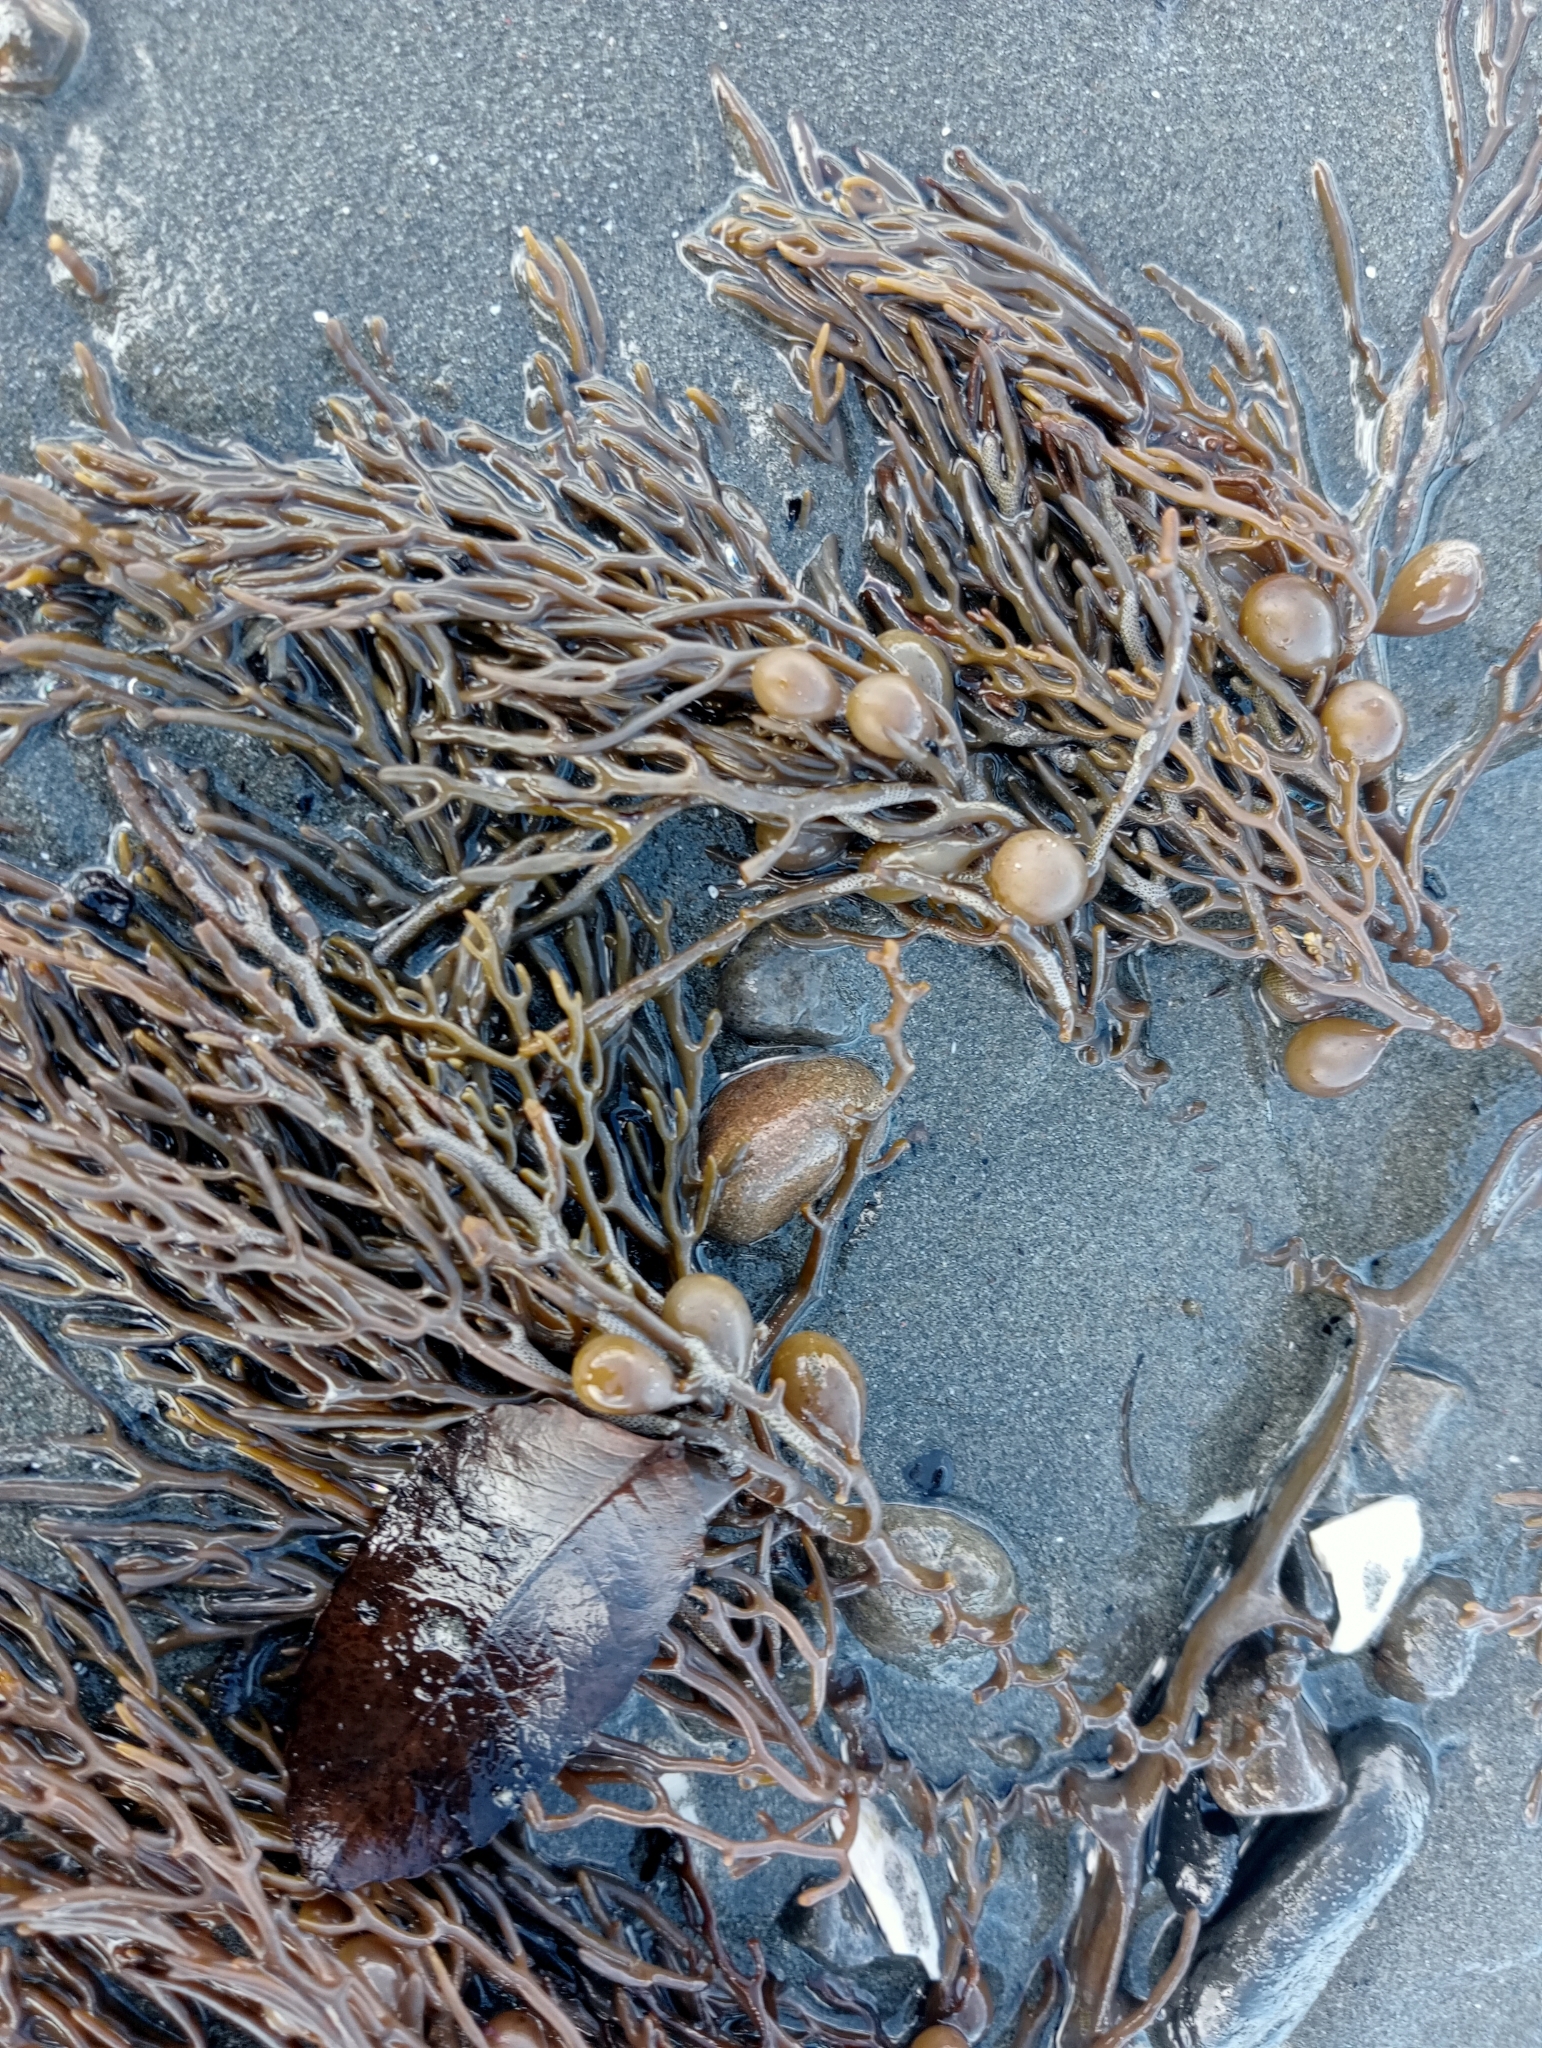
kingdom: Chromista
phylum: Ochrophyta
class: Phaeophyceae
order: Fucales
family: Sargassaceae
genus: Cystophora
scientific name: Cystophora retroflexa
